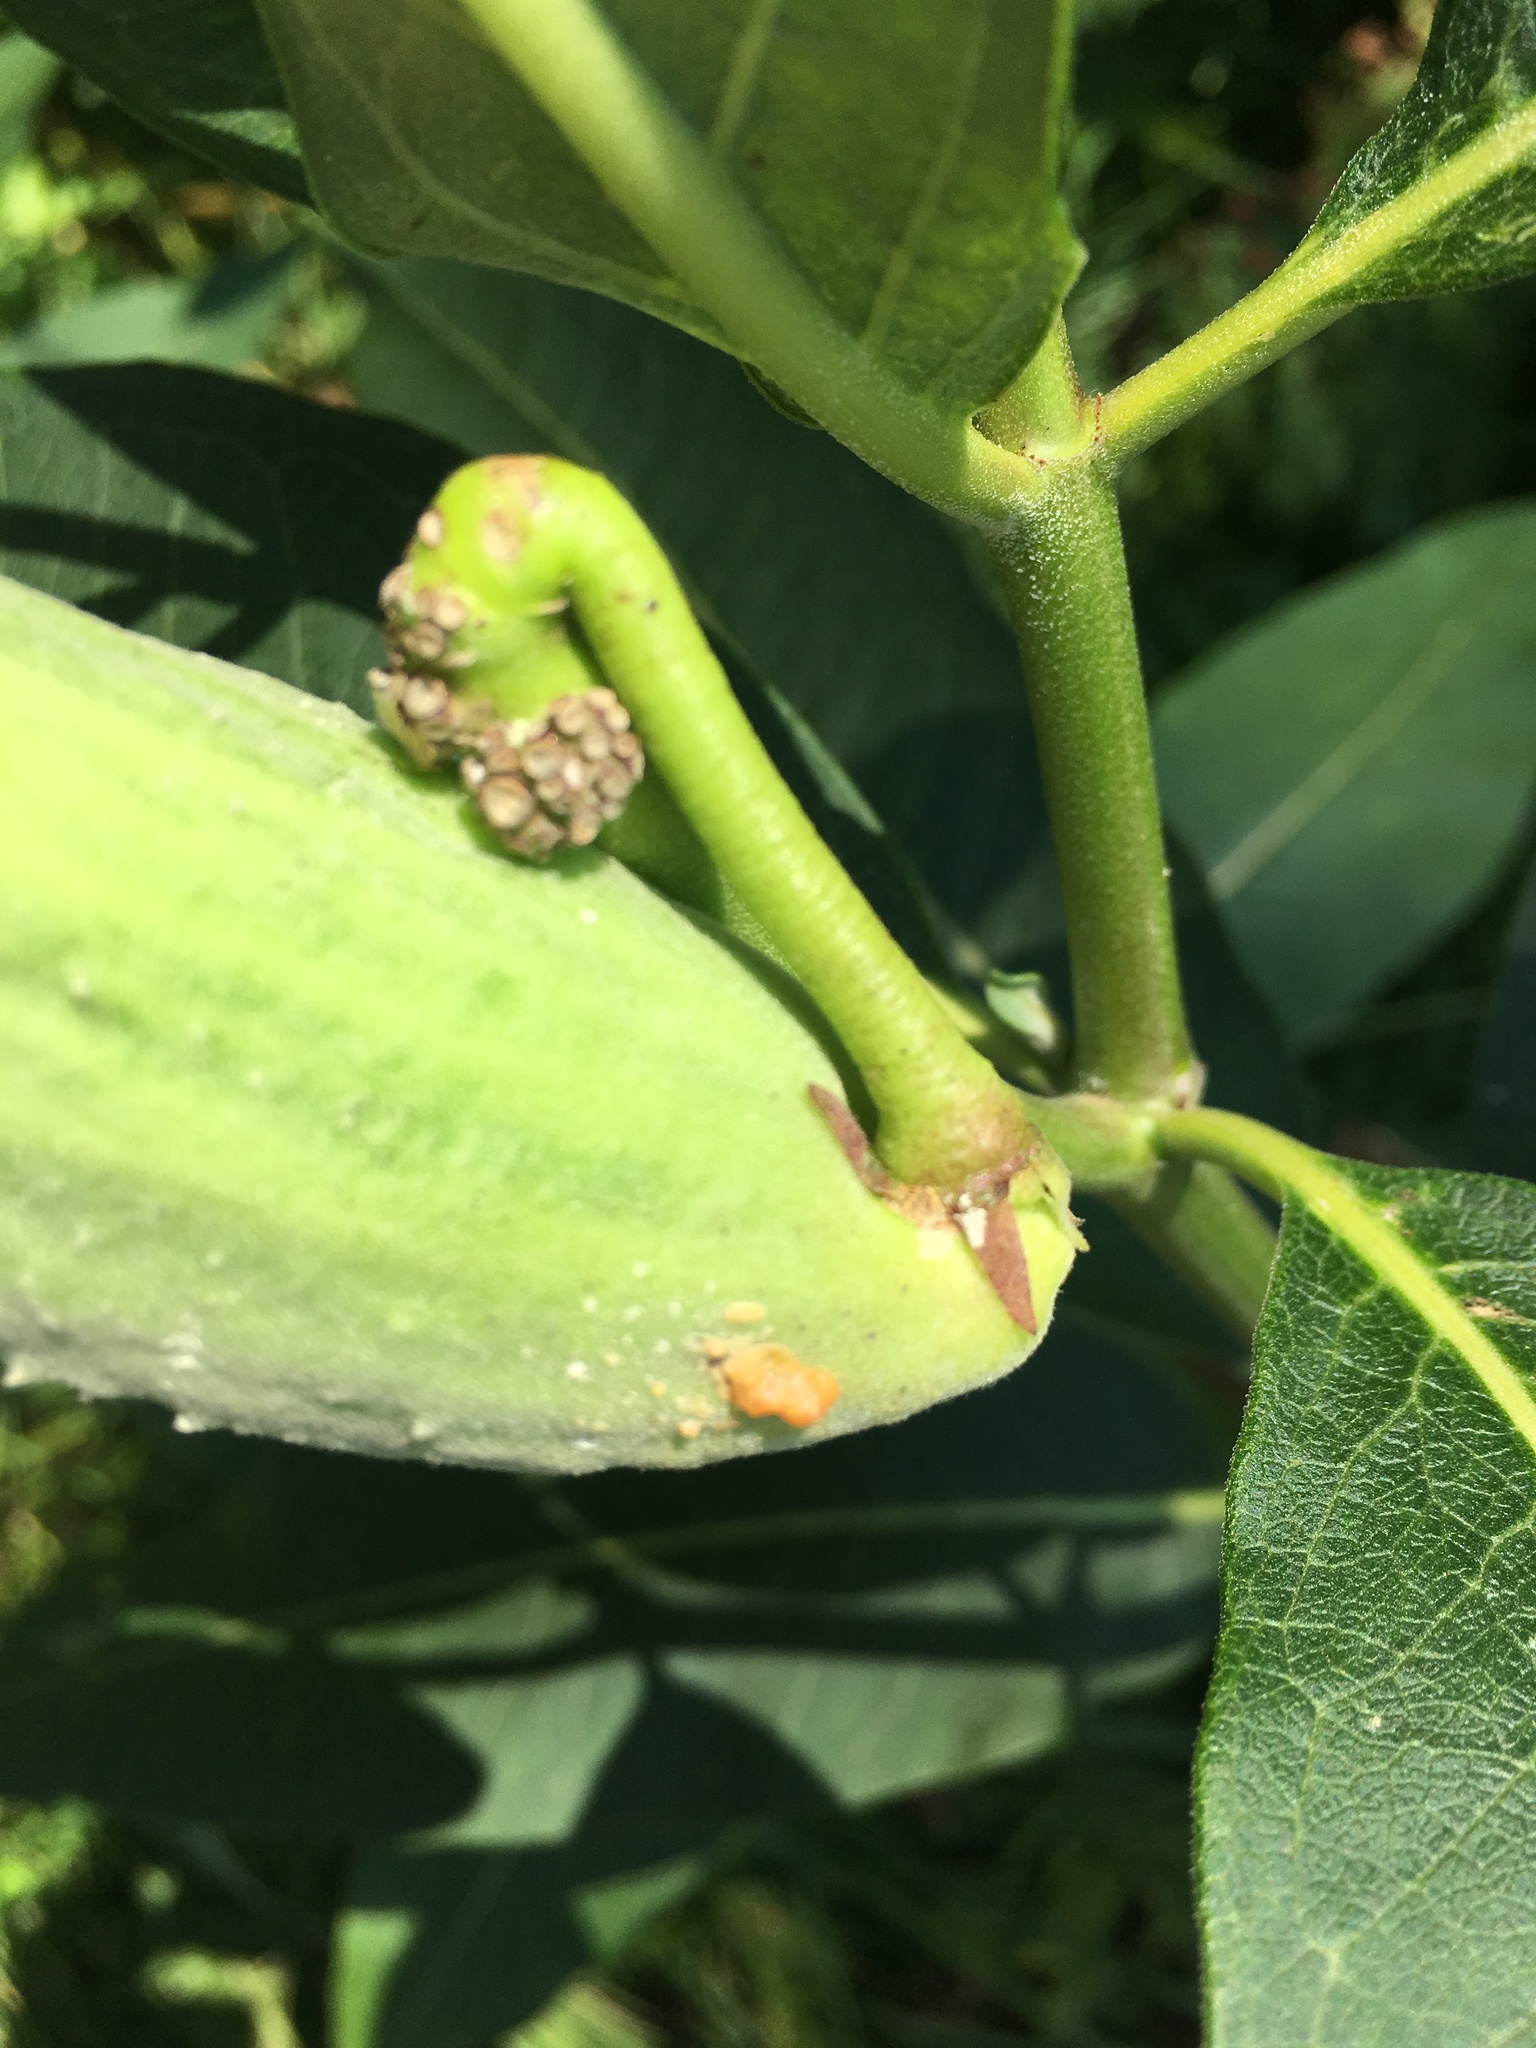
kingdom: Plantae
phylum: Tracheophyta
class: Magnoliopsida
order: Gentianales
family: Apocynaceae
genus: Asclepias
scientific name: Asclepias syriaca
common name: Common milkweed
